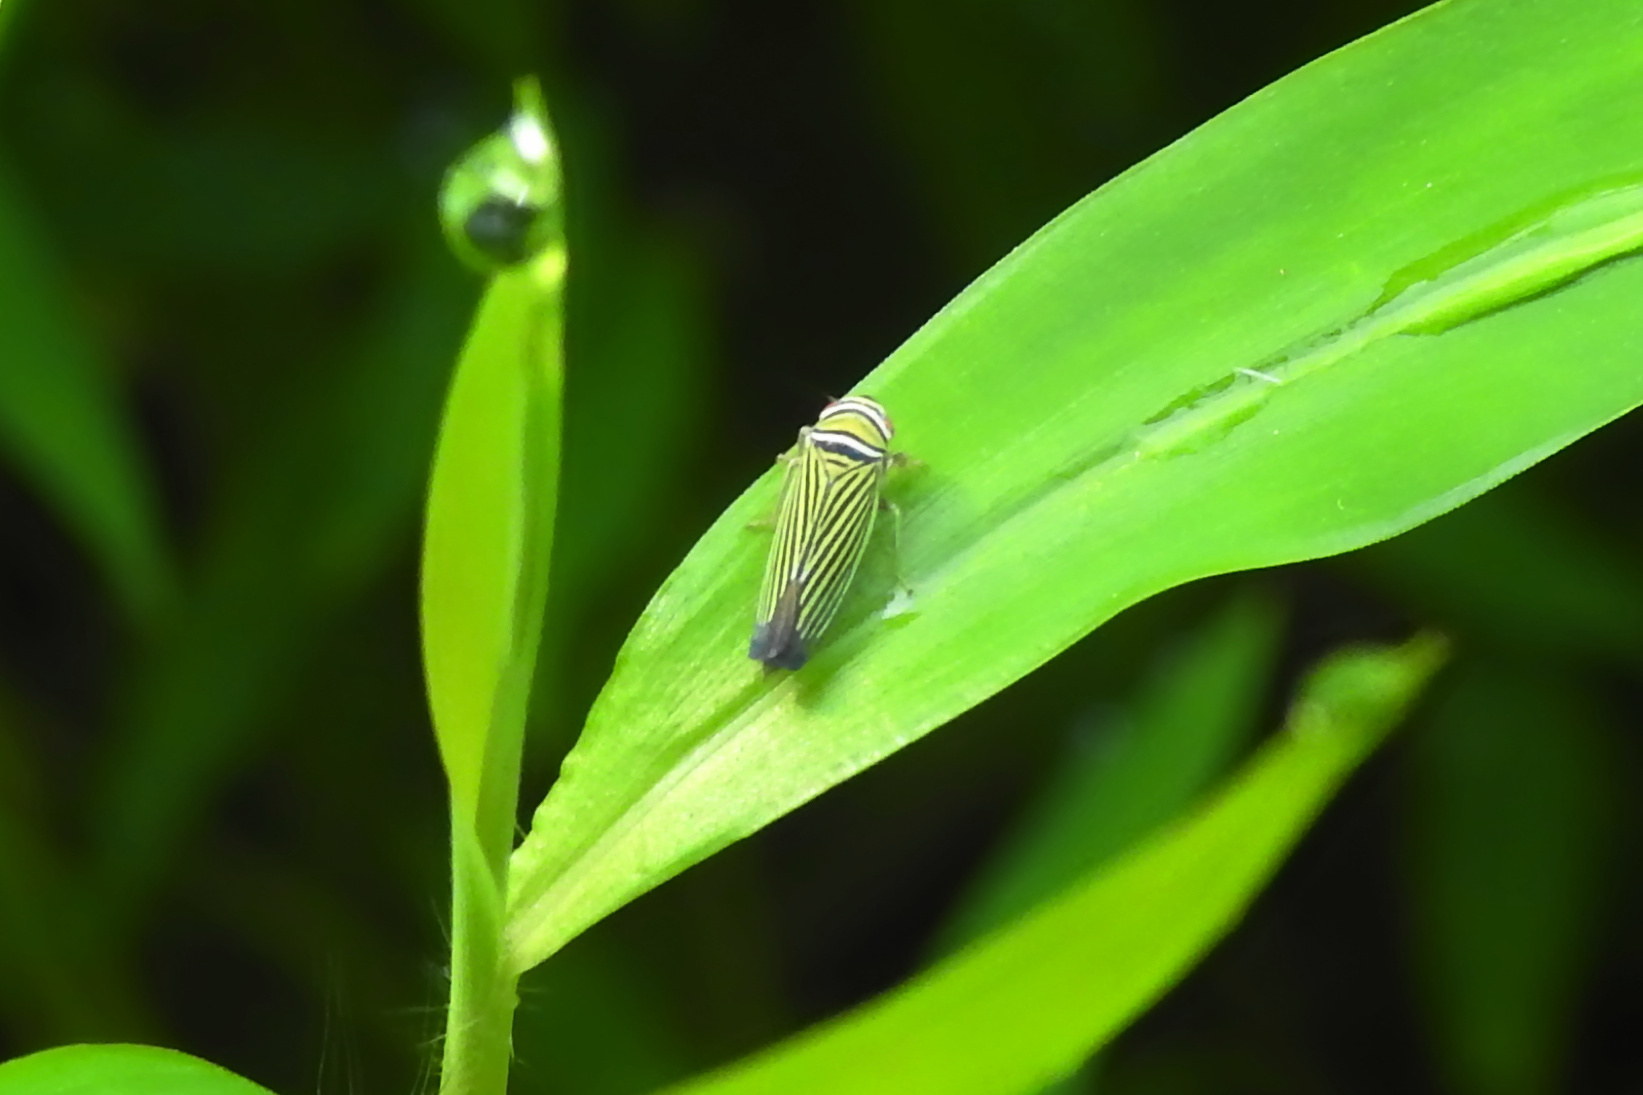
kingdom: Animalia
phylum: Arthropoda
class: Insecta
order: Hemiptera
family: Cicadellidae
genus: Tylozygus
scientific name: Tylozygus bifidus
